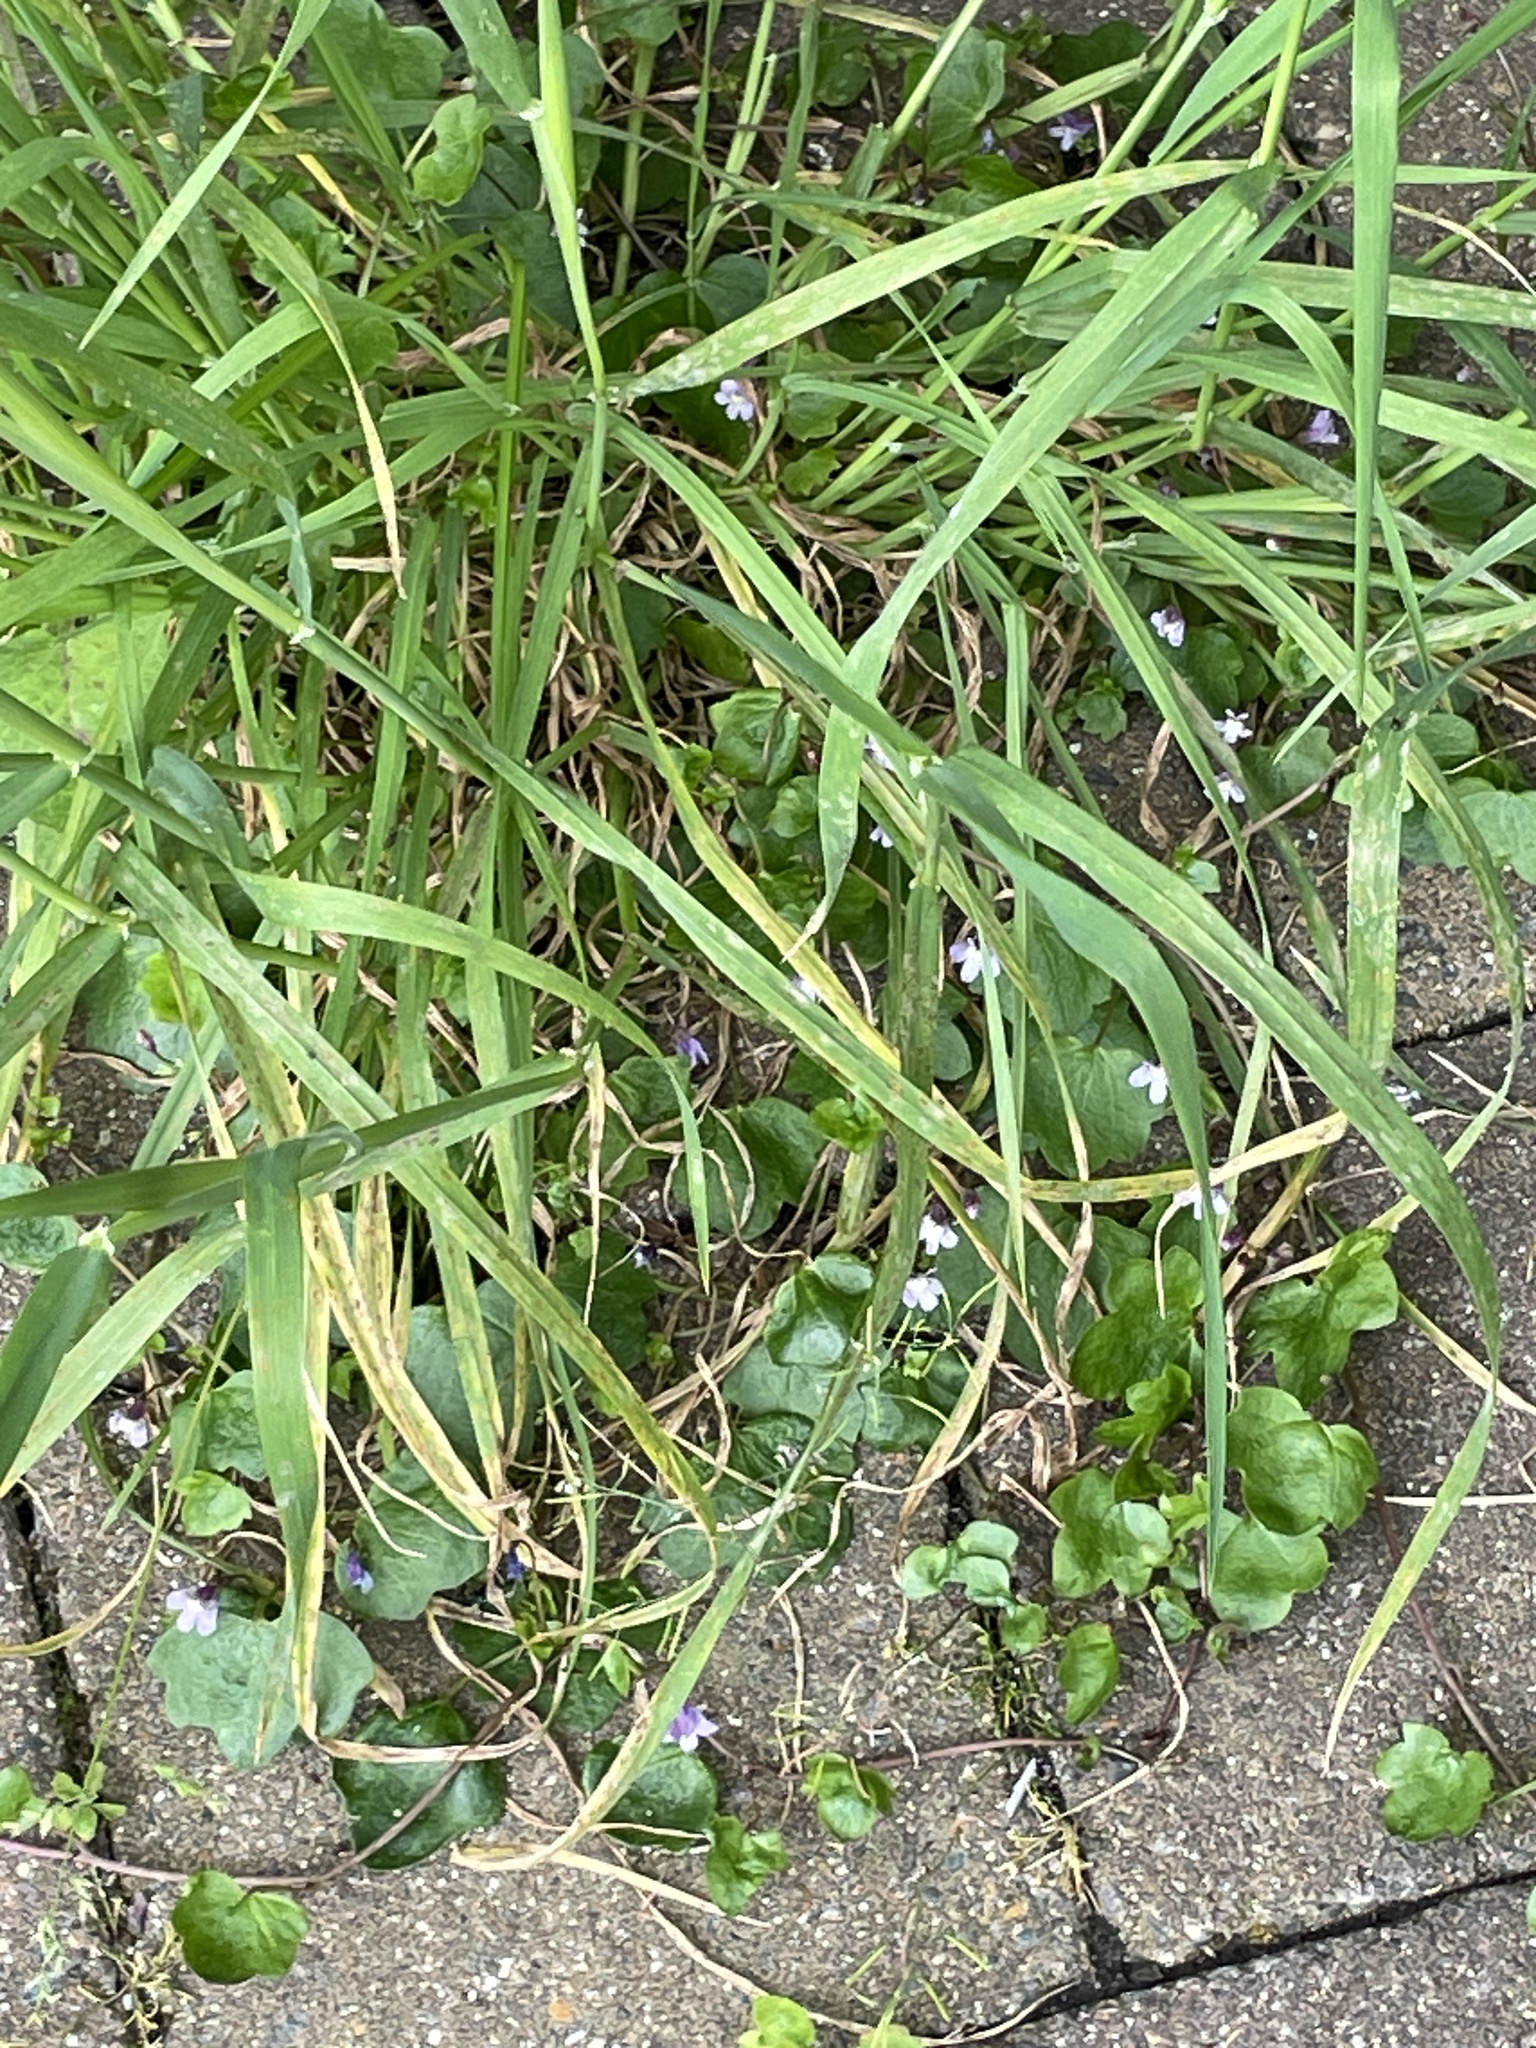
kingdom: Plantae
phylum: Tracheophyta
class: Magnoliopsida
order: Lamiales
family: Plantaginaceae
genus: Cymbalaria
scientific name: Cymbalaria muralis
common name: Ivy-leaved toadflax
